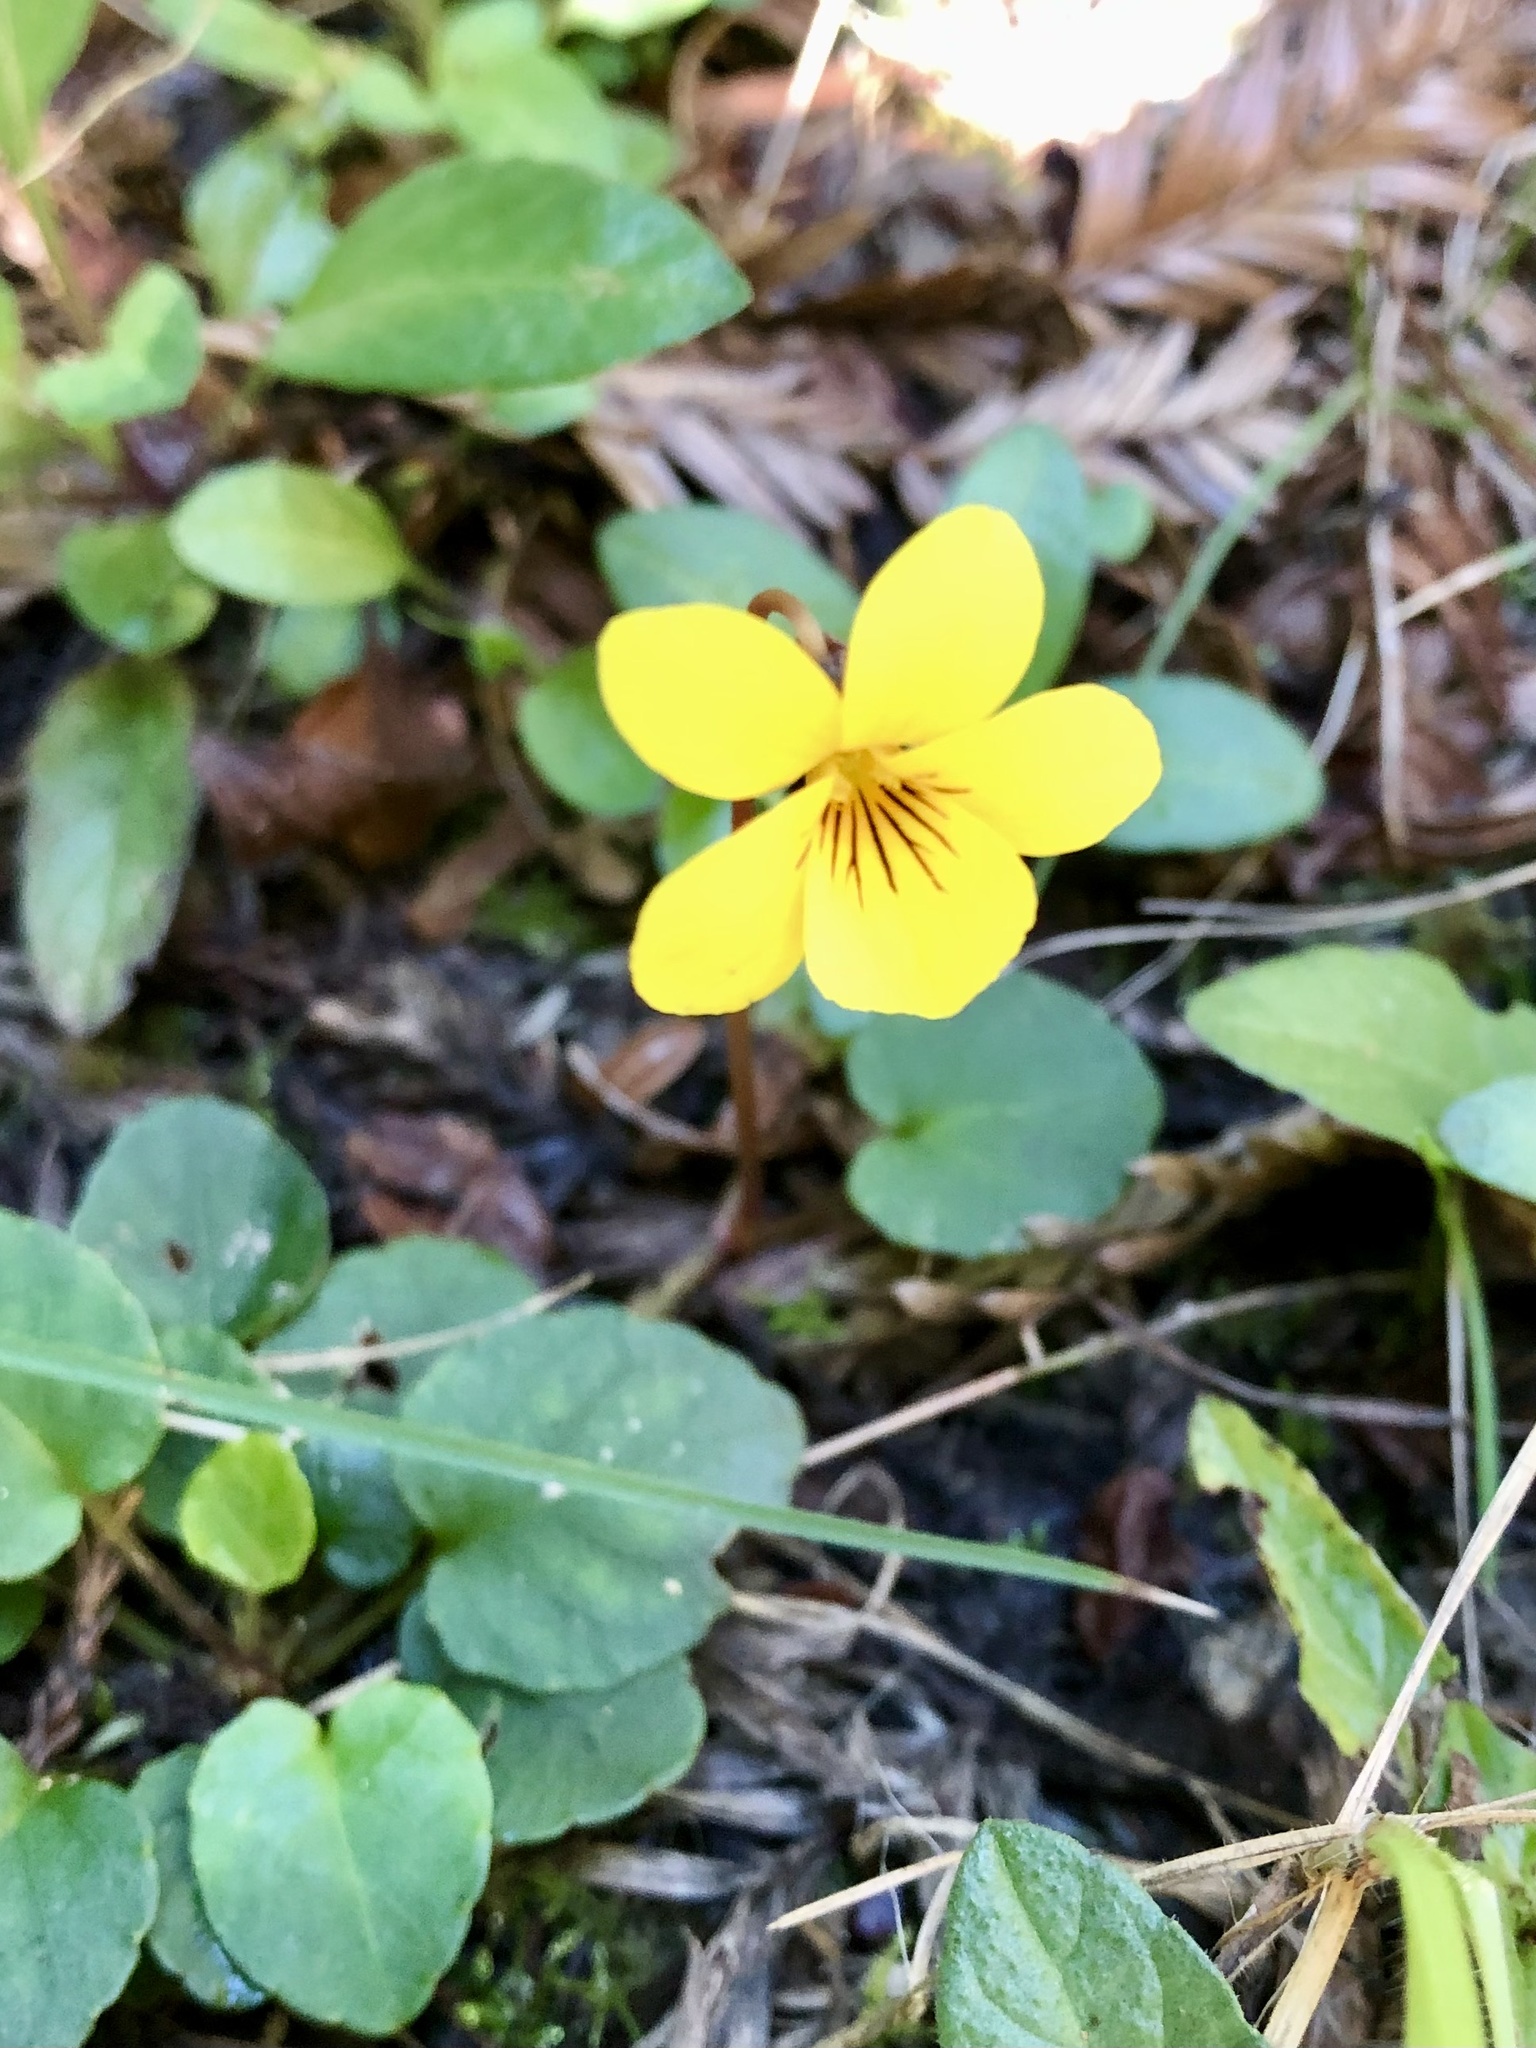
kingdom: Plantae
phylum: Tracheophyta
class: Magnoliopsida
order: Malpighiales
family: Violaceae
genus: Viola
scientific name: Viola sempervirens
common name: Evergreen violet
